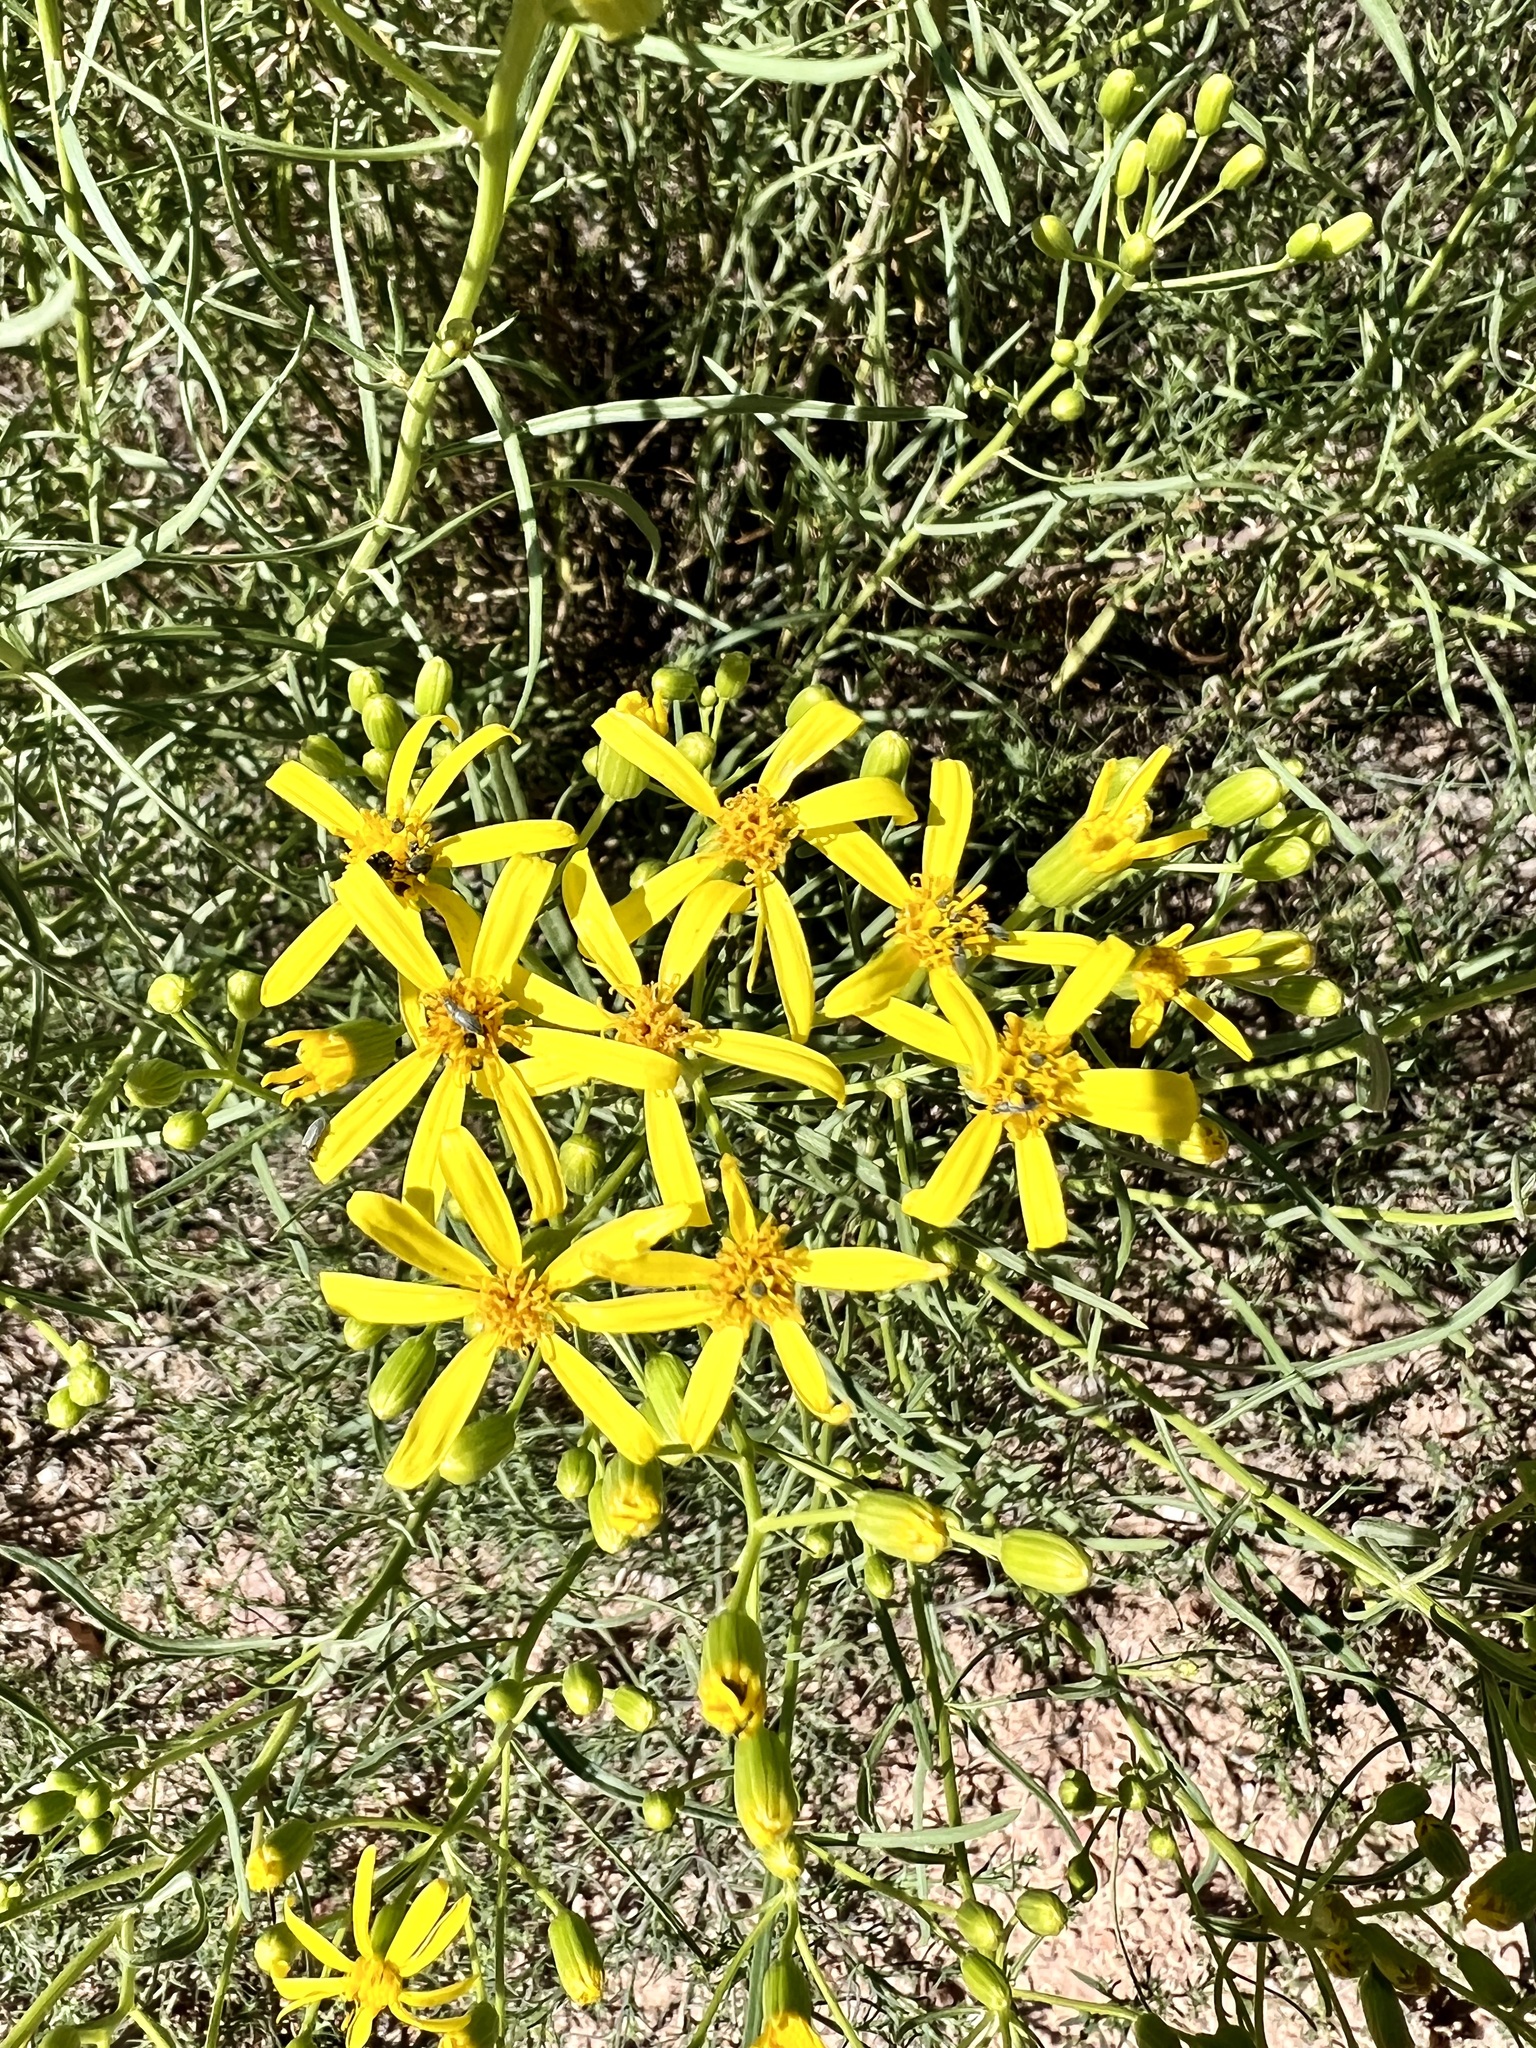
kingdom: Plantae
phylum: Tracheophyta
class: Magnoliopsida
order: Asterales
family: Asteraceae
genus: Senecio
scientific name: Senecio spartioides
